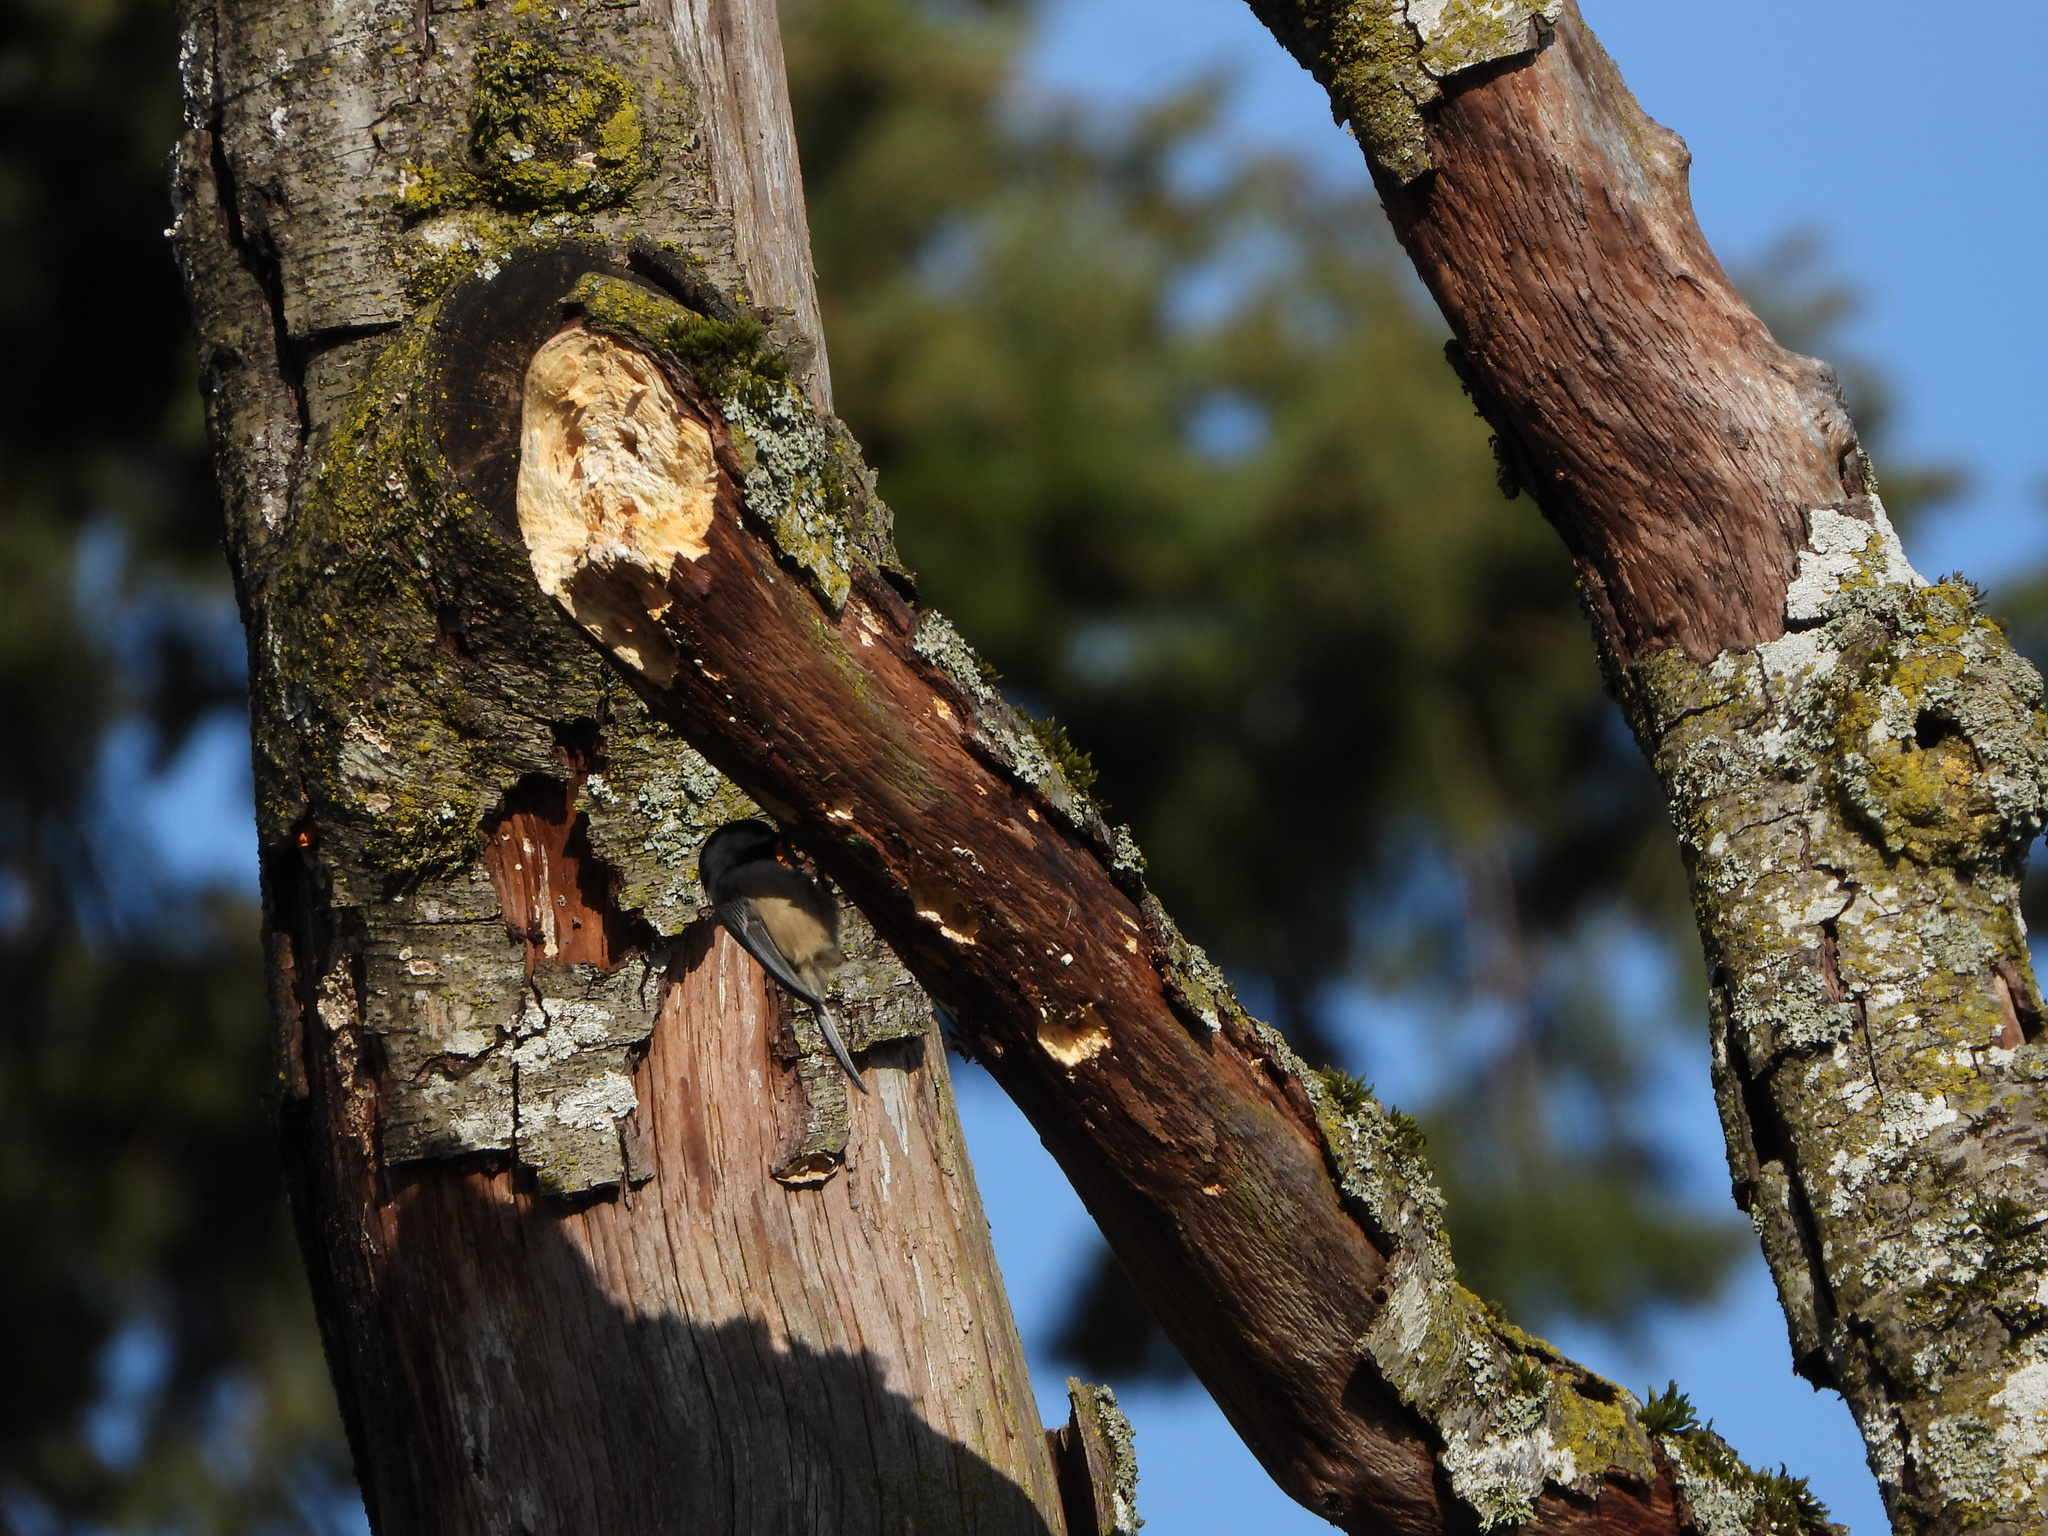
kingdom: Animalia
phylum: Chordata
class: Aves
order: Passeriformes
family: Paridae
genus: Poecile
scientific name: Poecile atricapillus
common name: Black-capped chickadee
